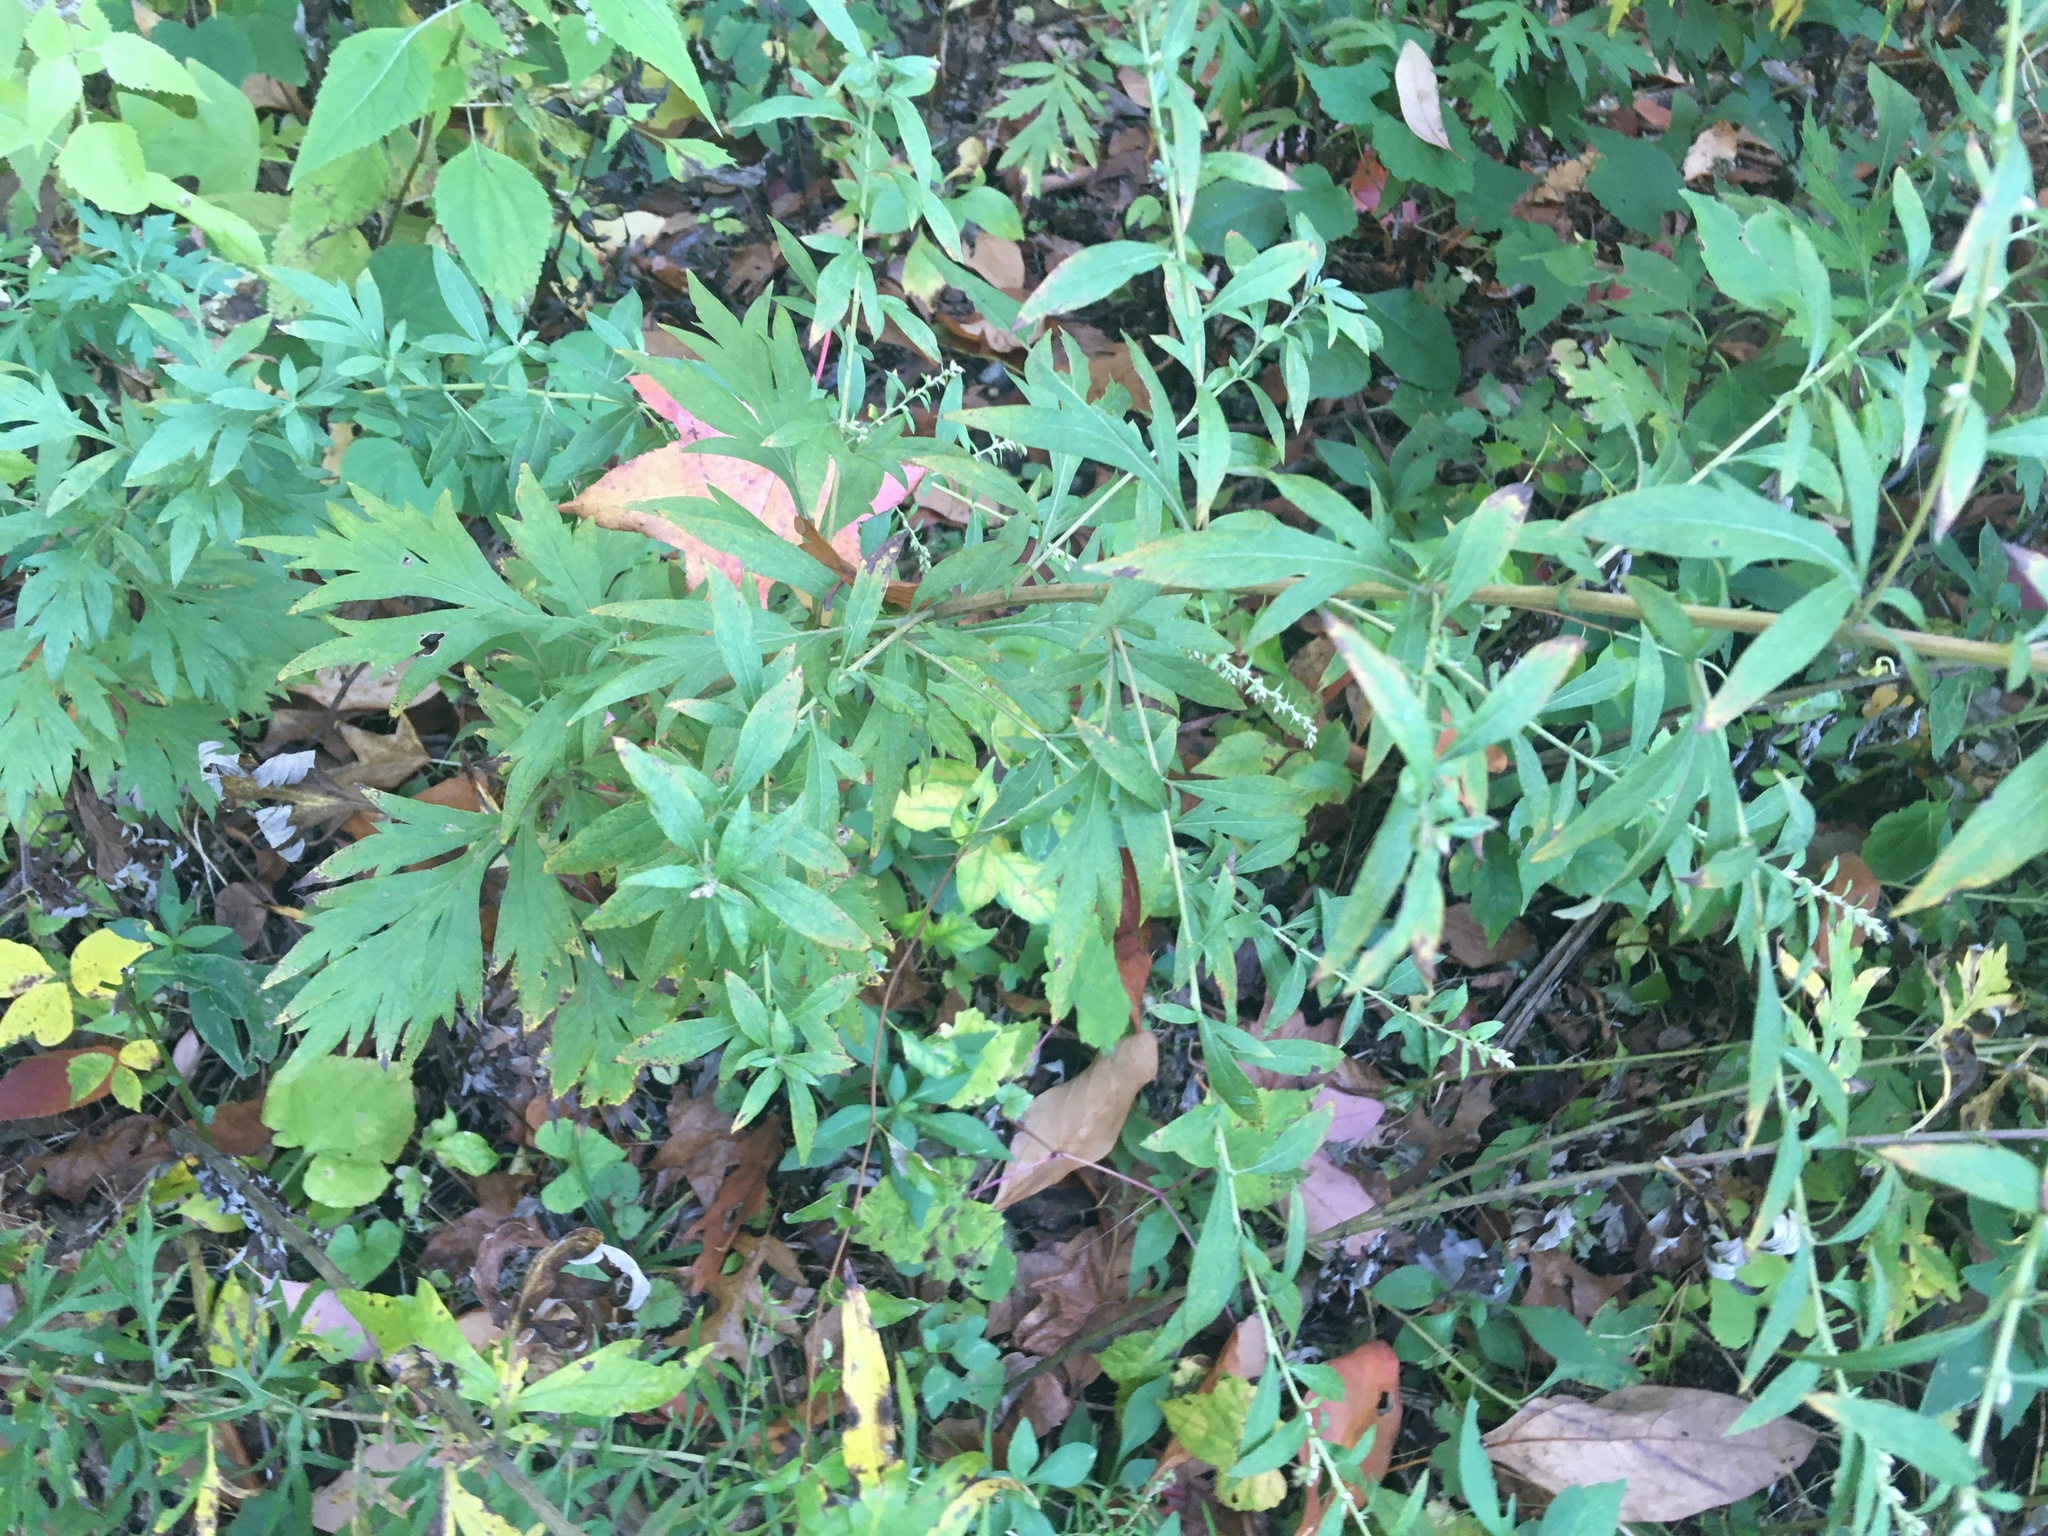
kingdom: Plantae
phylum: Tracheophyta
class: Magnoliopsida
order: Asterales
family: Asteraceae
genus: Artemisia
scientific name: Artemisia vulgaris
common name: Mugwort
